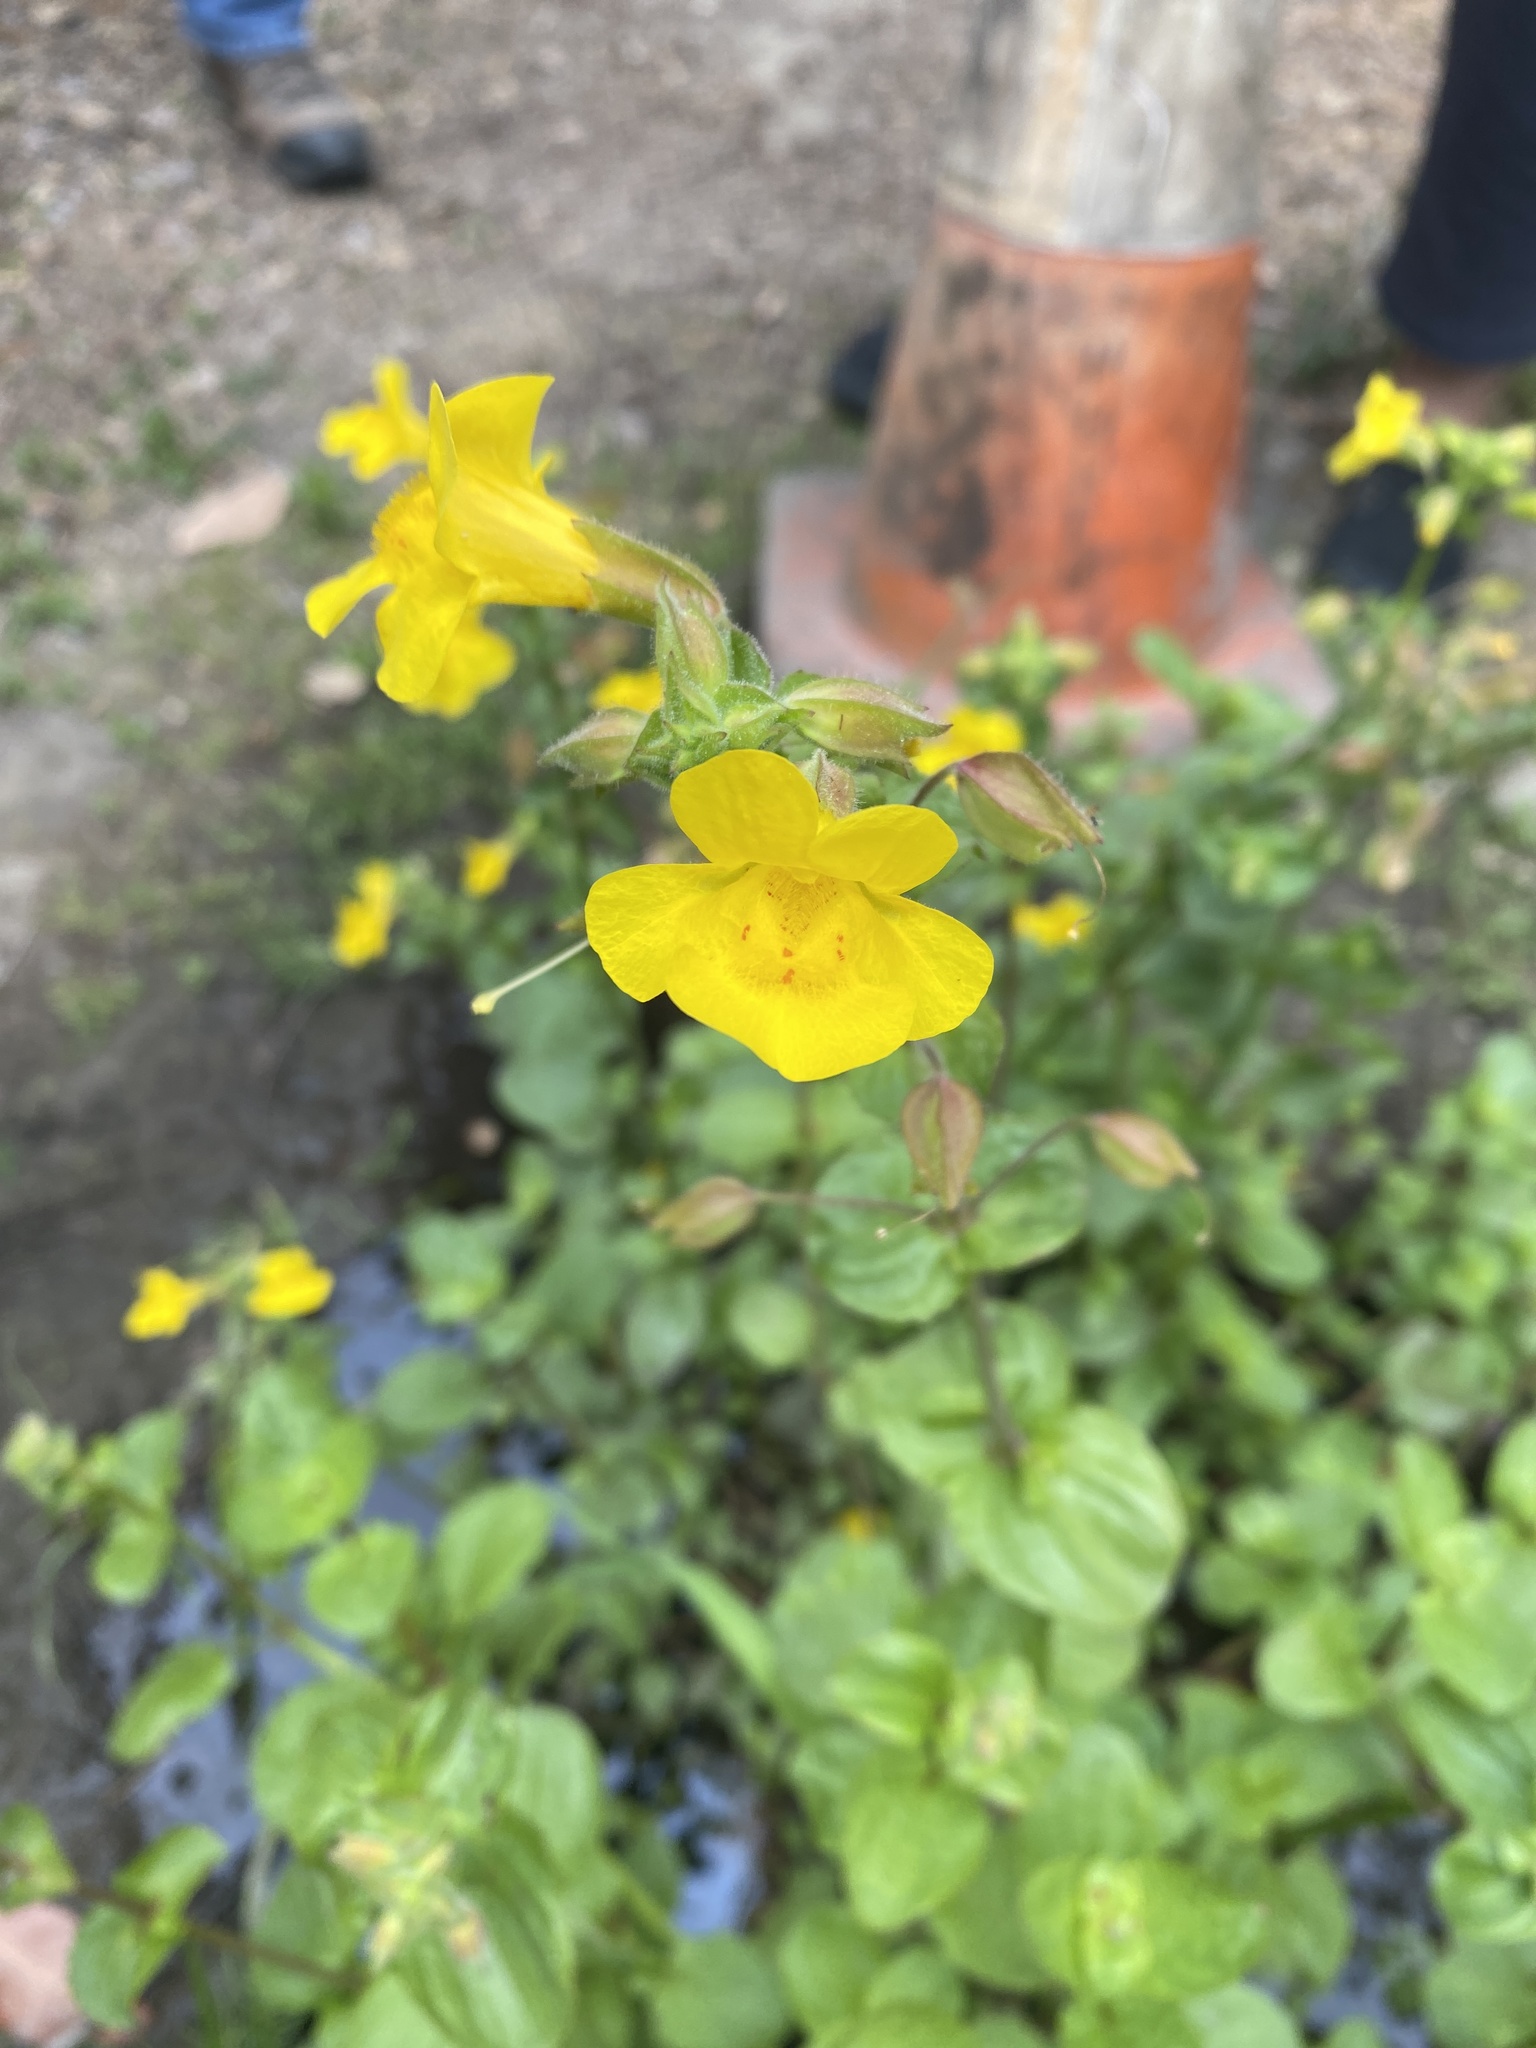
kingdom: Plantae
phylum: Tracheophyta
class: Magnoliopsida
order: Lamiales
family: Phrymaceae
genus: Erythranthe
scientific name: Erythranthe guttata
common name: Monkeyflower
